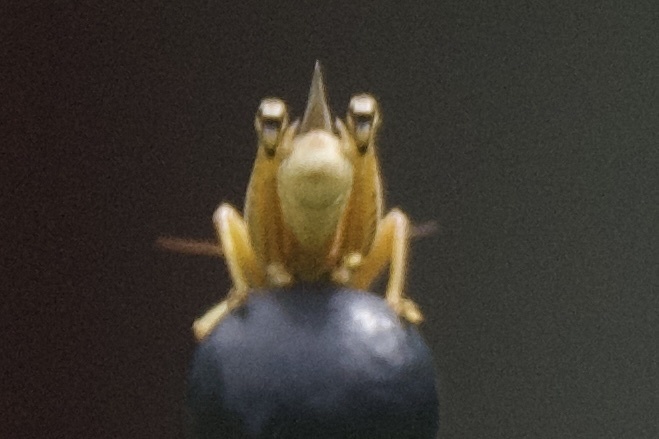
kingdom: Animalia
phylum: Arthropoda
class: Insecta
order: Orthoptera
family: Acrididae
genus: Melanoplus
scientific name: Melanoplus differentialis
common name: Differential grasshopper
